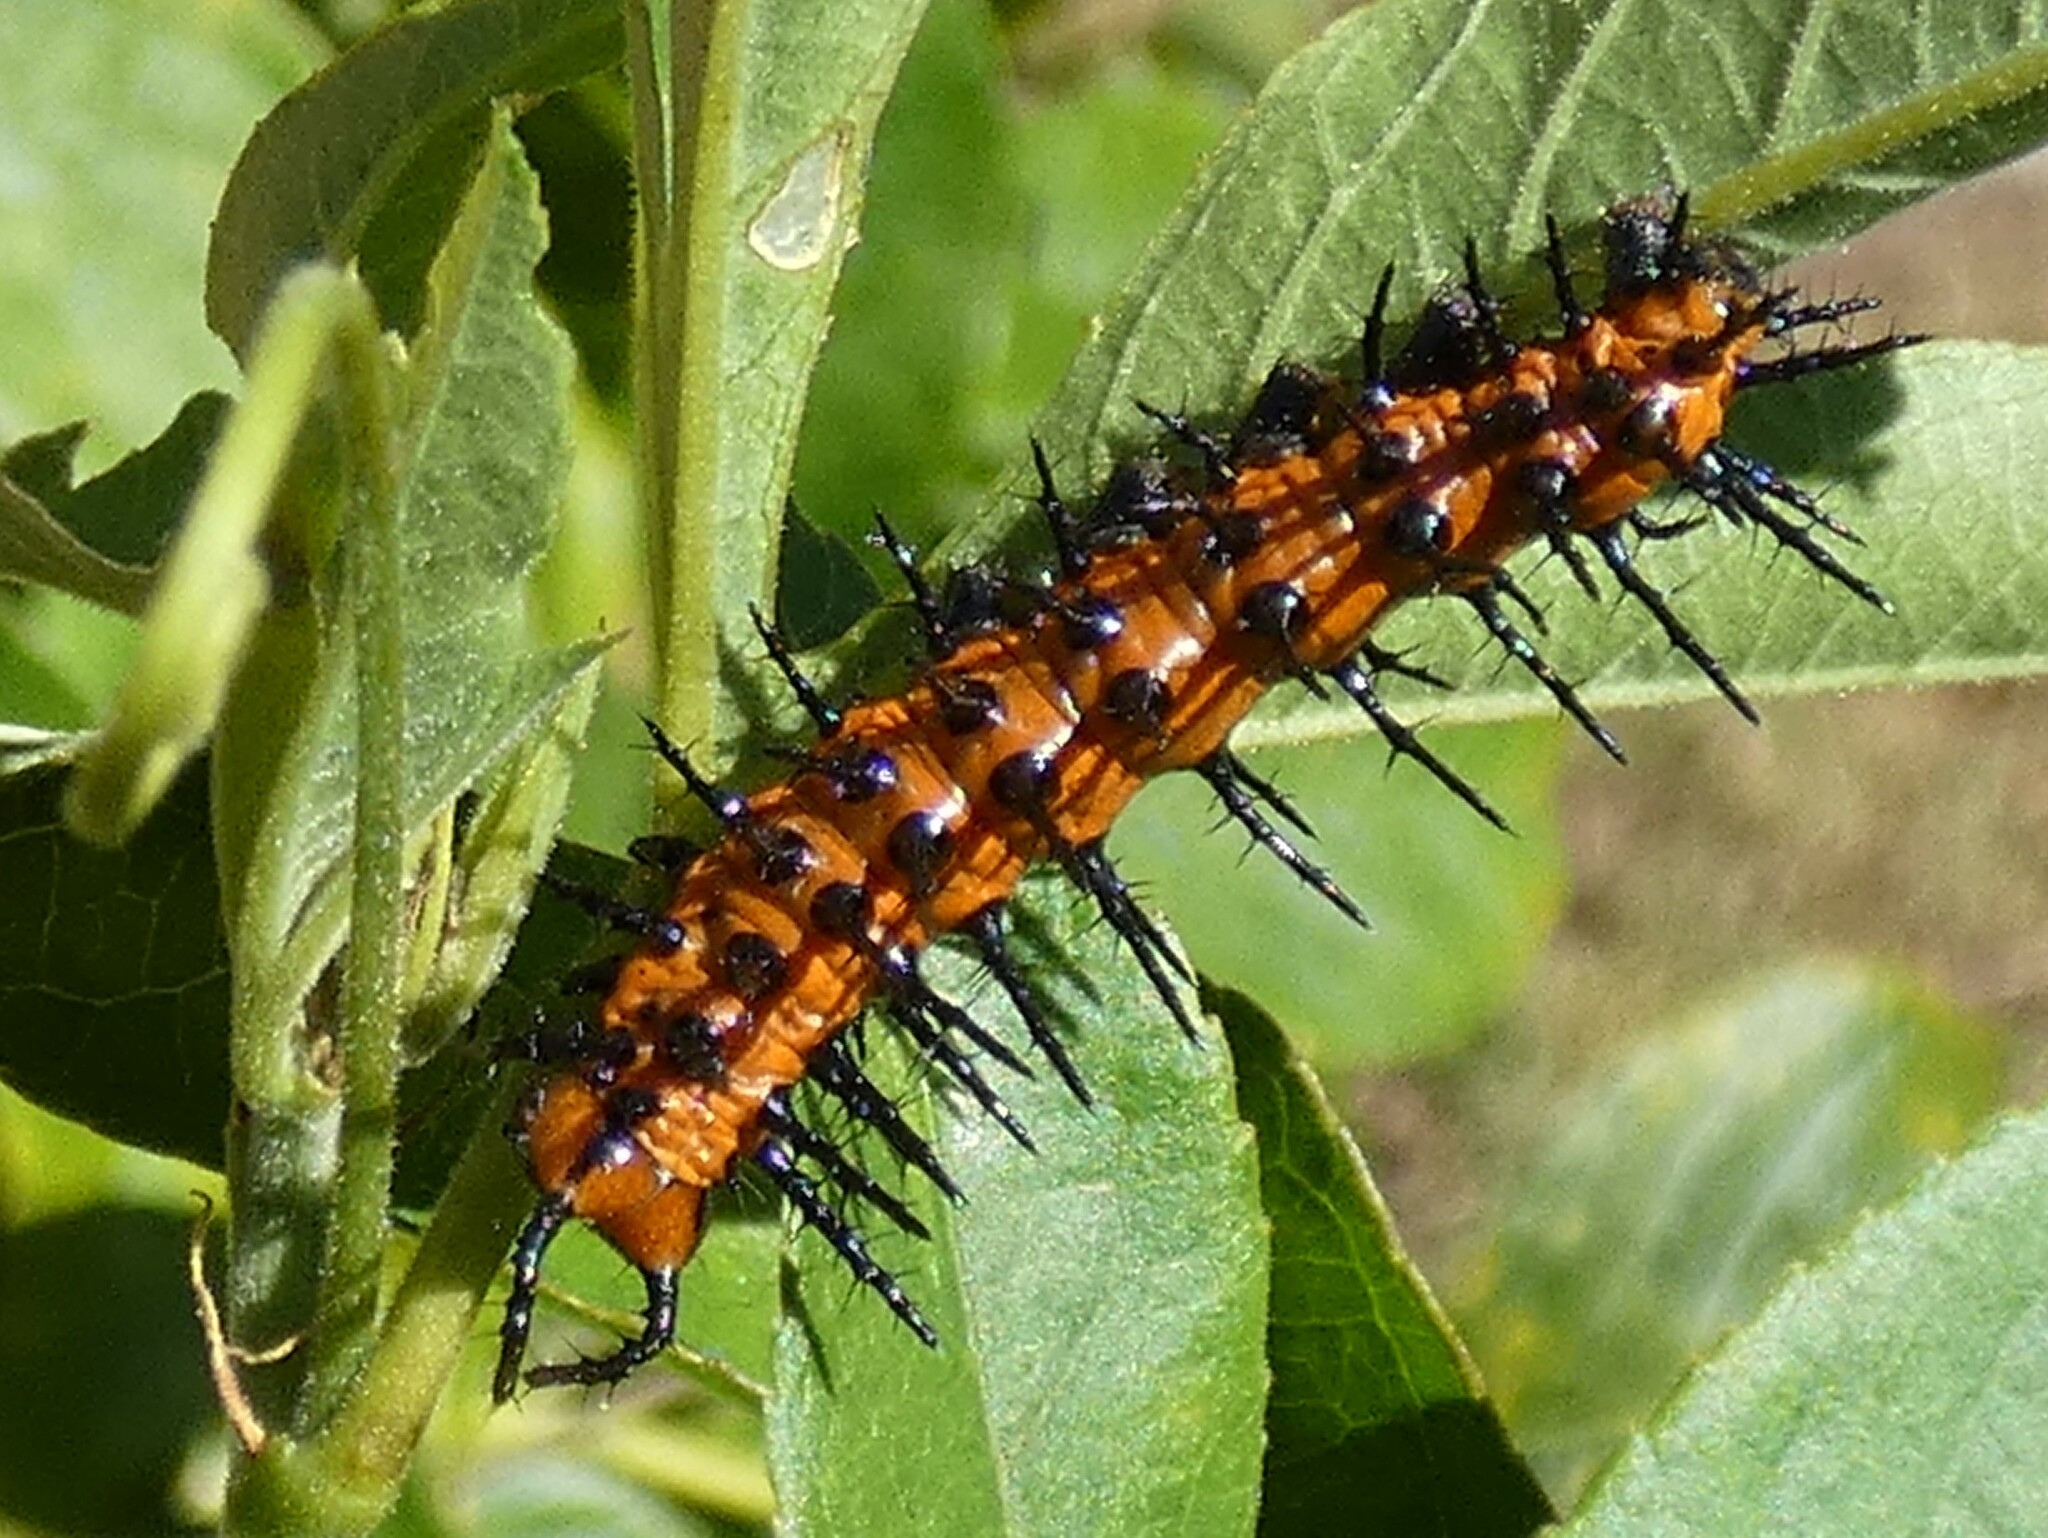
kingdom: Animalia
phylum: Arthropoda
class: Insecta
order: Lepidoptera
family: Nymphalidae
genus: Dione
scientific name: Dione vanillae
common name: Gulf fritillary
